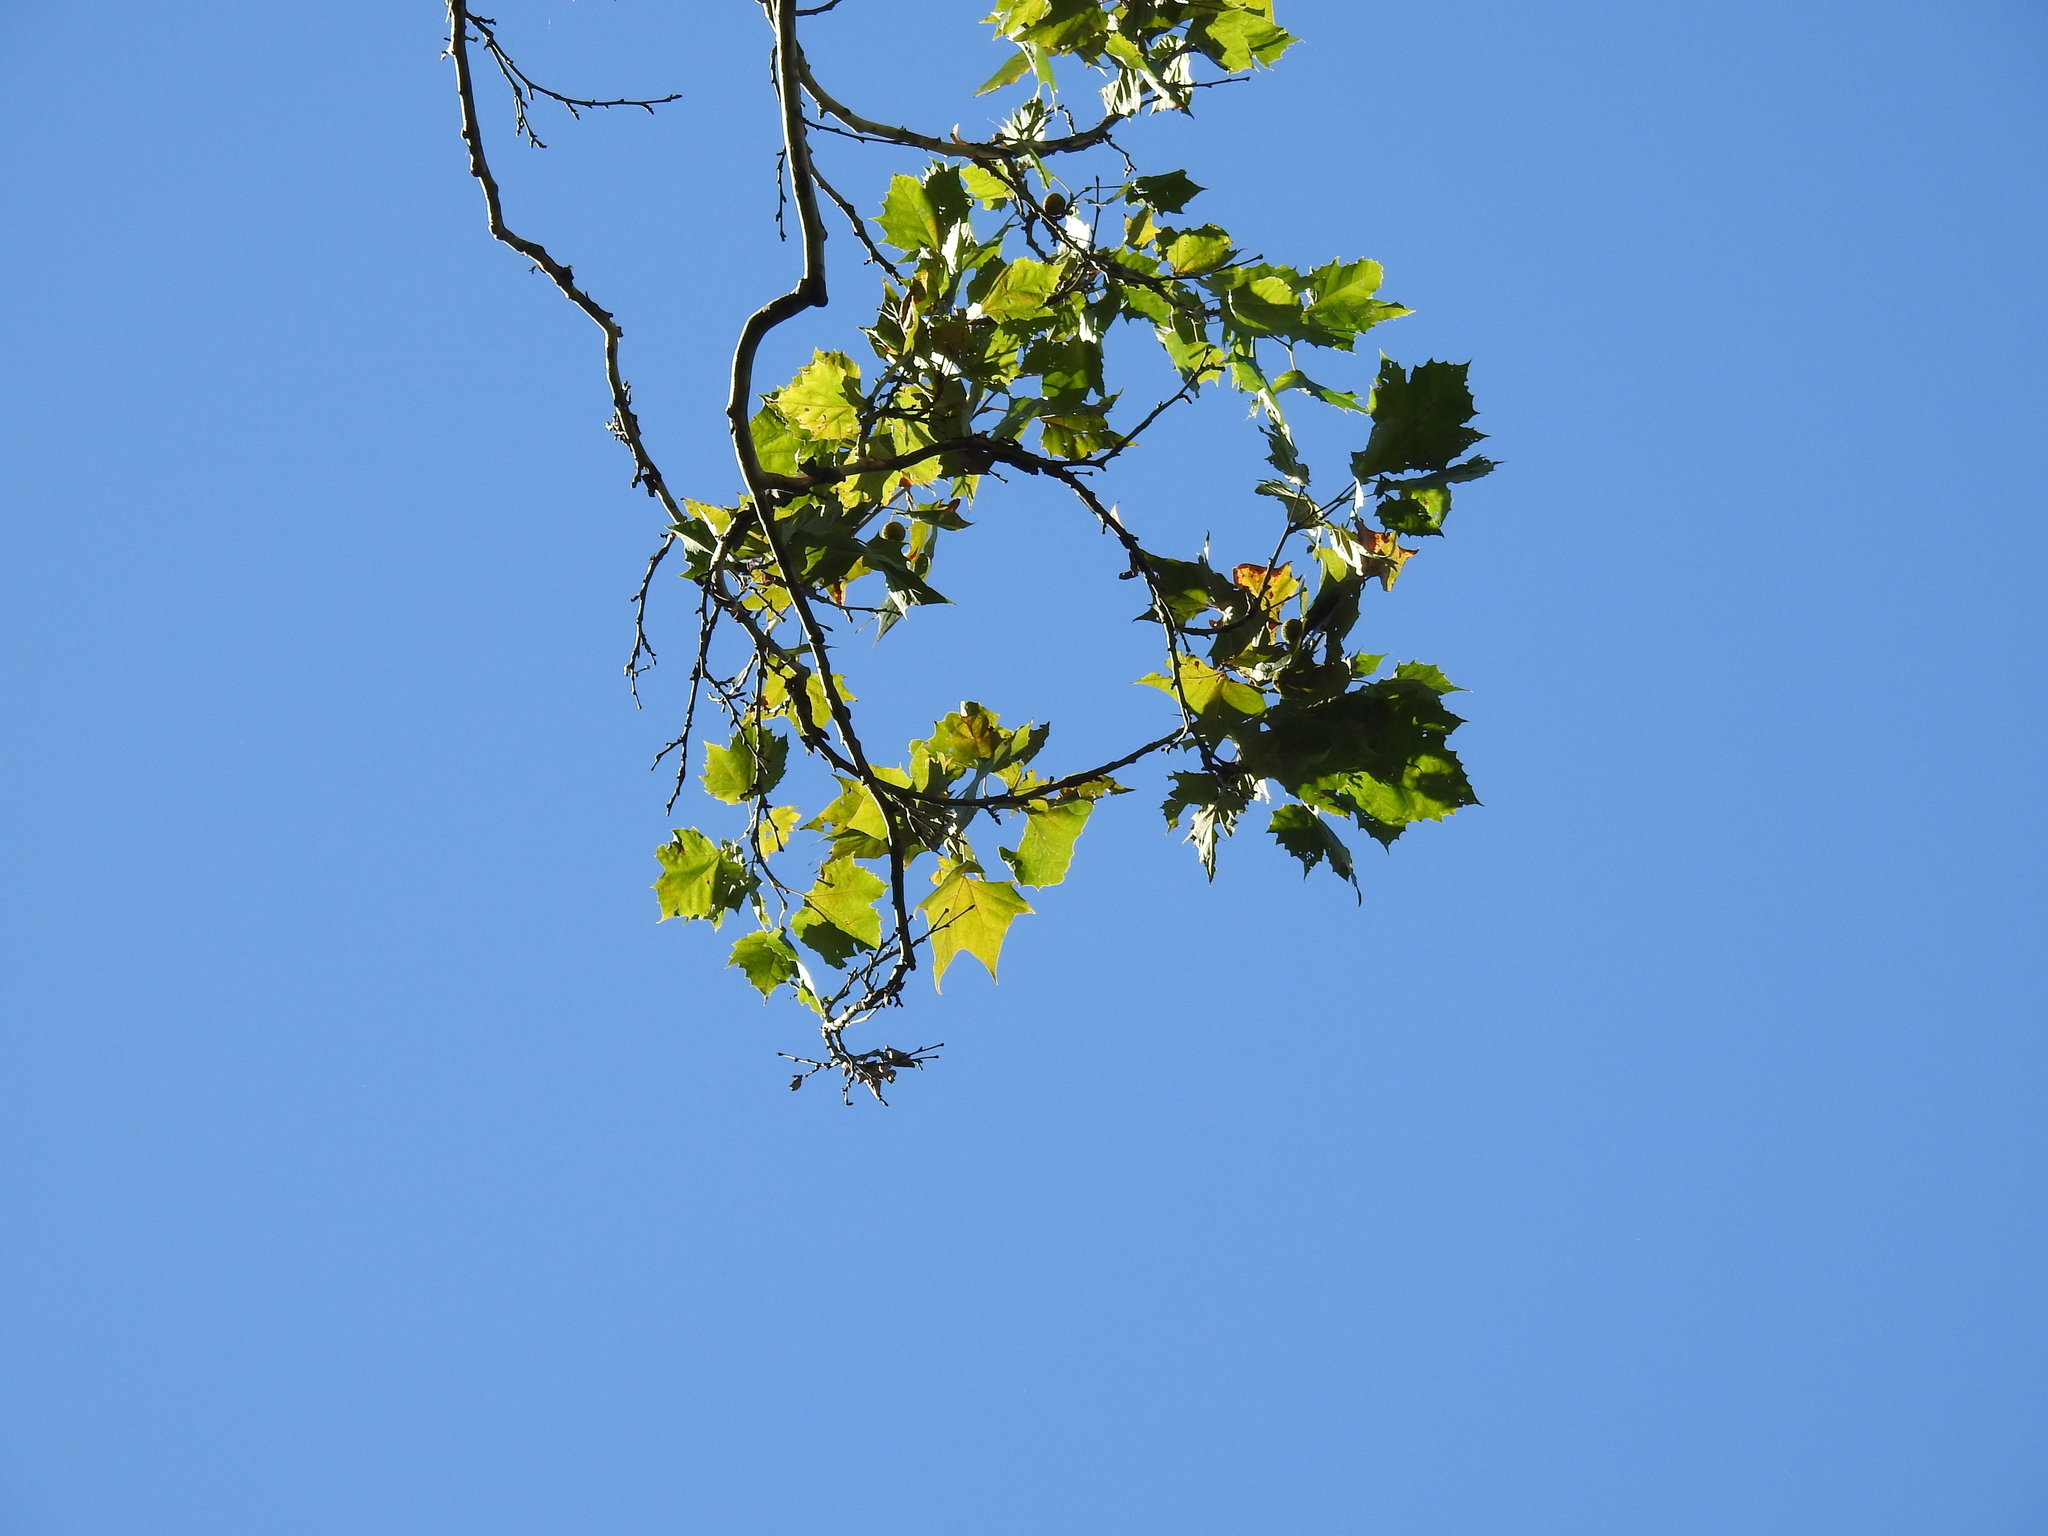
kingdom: Plantae
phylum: Tracheophyta
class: Magnoliopsida
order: Proteales
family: Platanaceae
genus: Platanus
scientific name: Platanus occidentalis
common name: American sycamore
